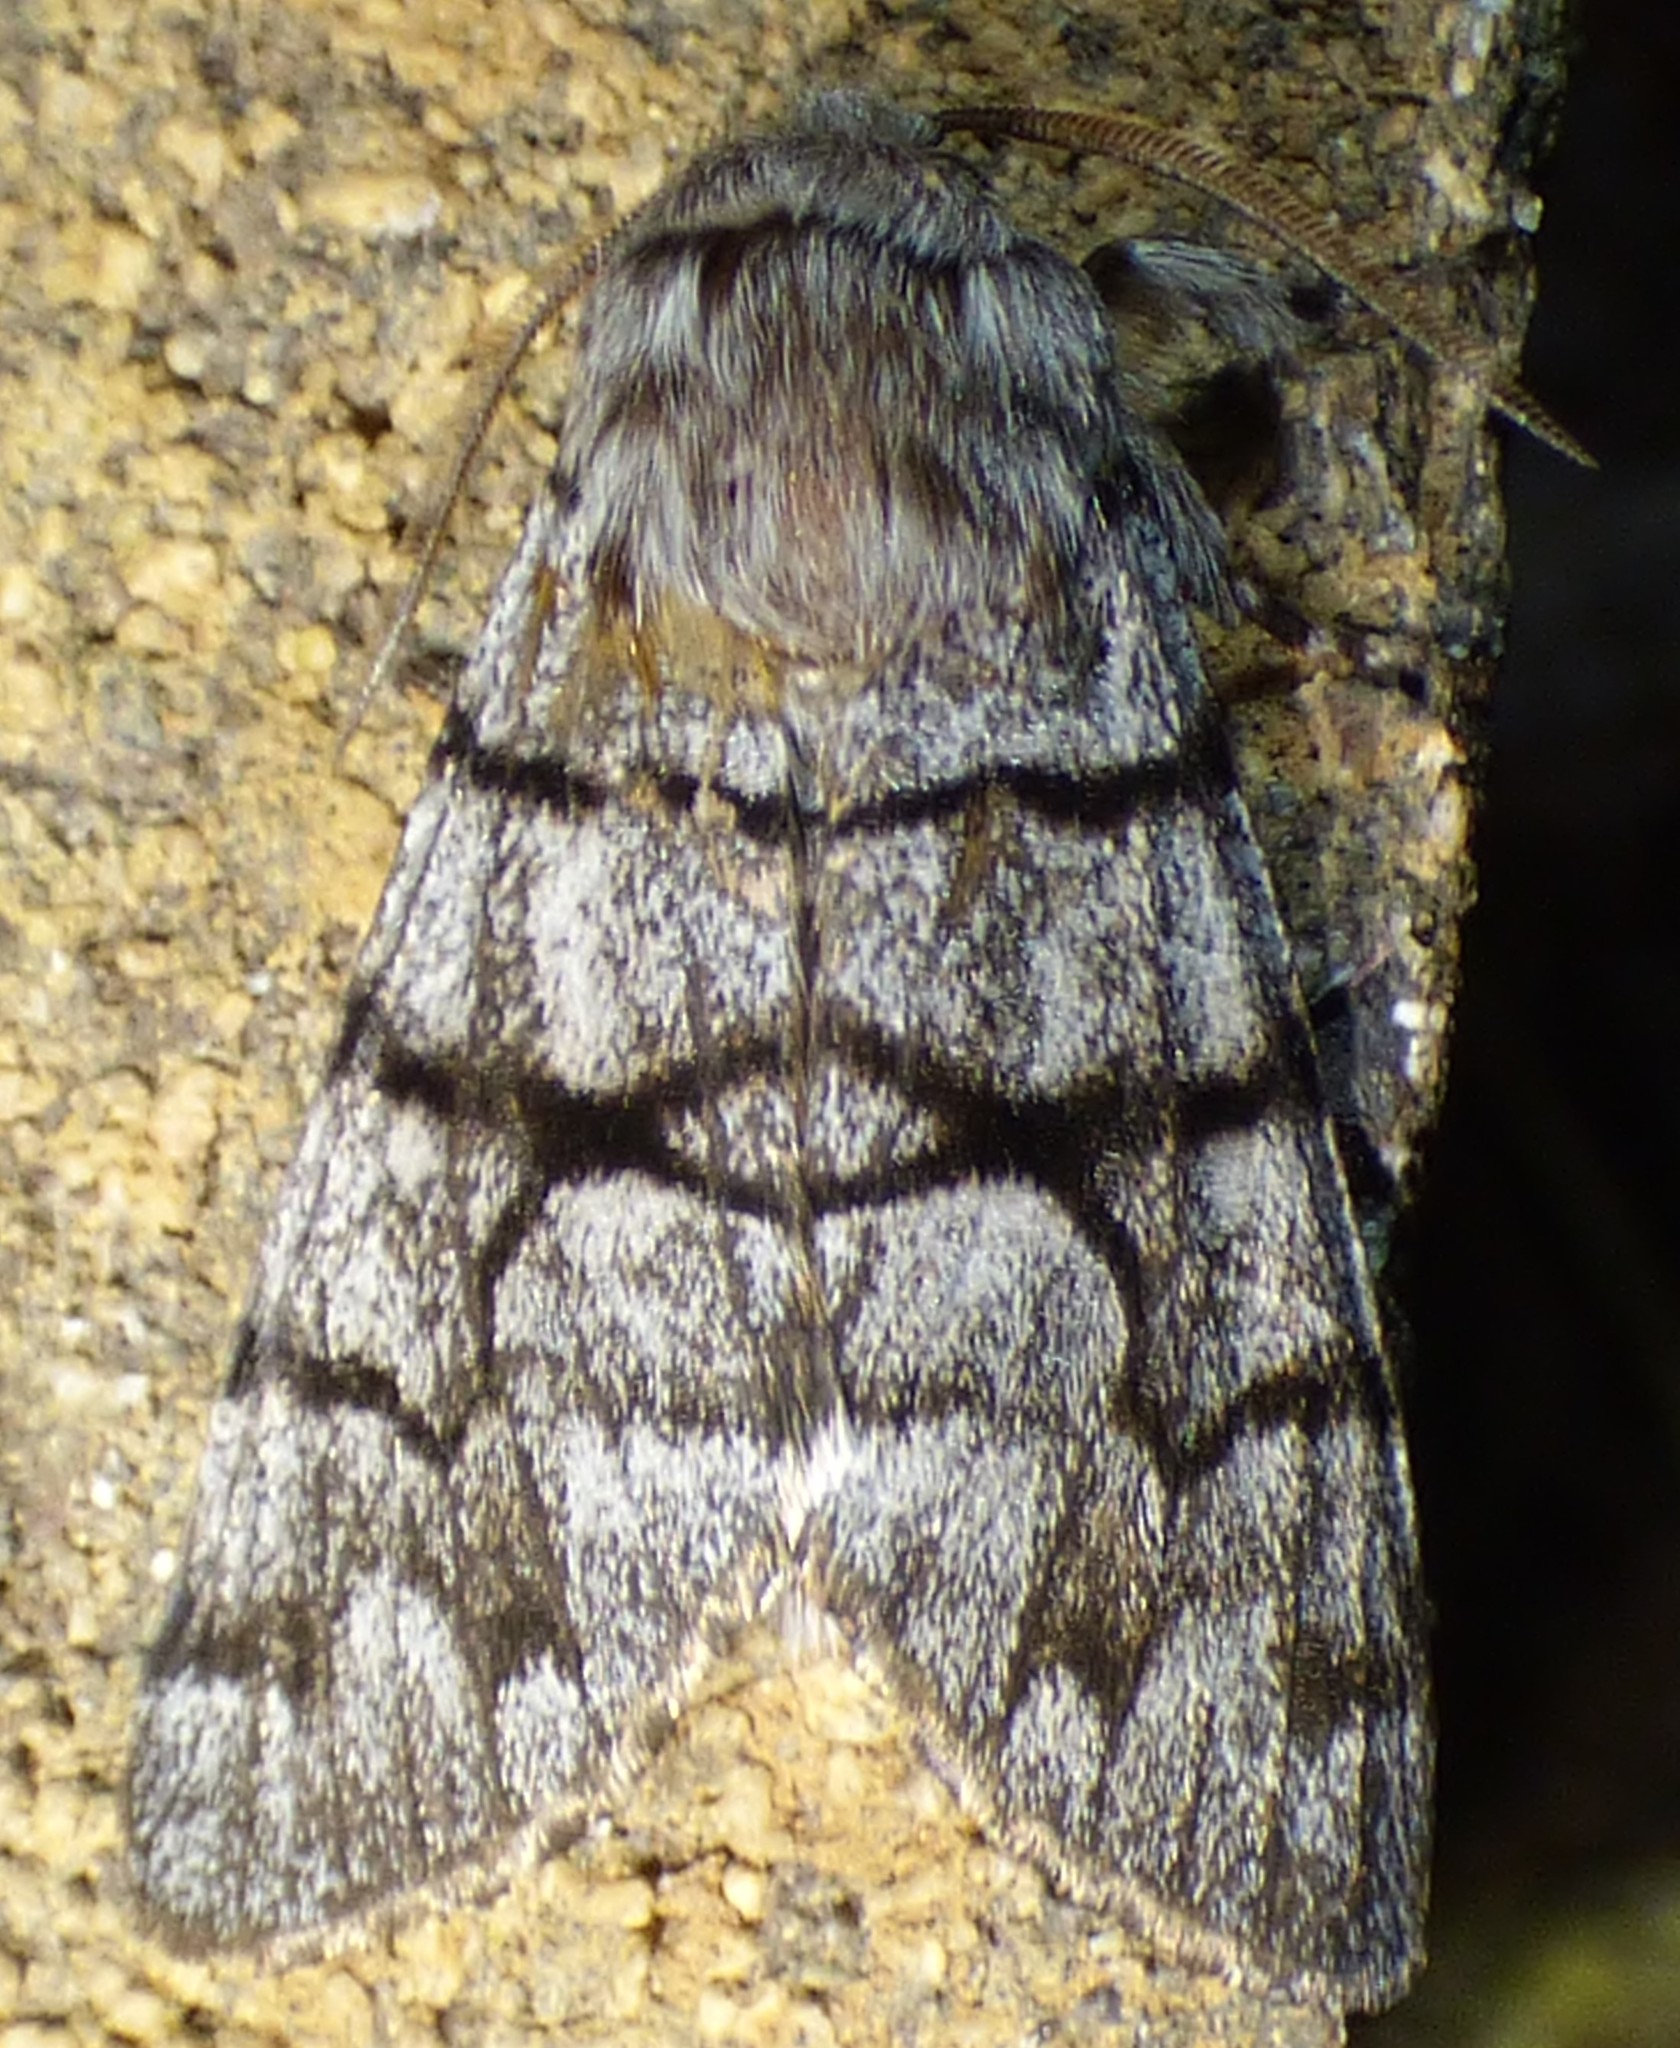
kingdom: Animalia
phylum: Arthropoda
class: Insecta
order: Lepidoptera
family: Noctuidae
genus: Panthea
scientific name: Panthea furcilla
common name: Eastern panthea moth
